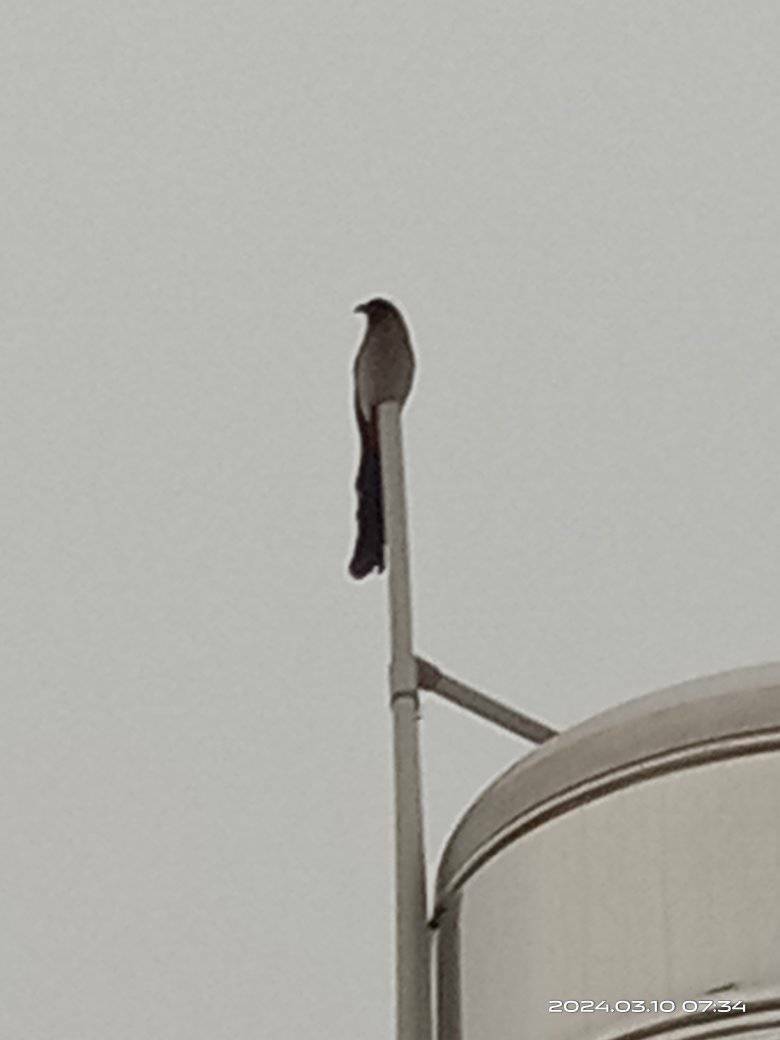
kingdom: Animalia
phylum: Chordata
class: Aves
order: Passeriformes
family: Corvidae
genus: Dendrocitta
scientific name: Dendrocitta formosae
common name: Grey treepie
